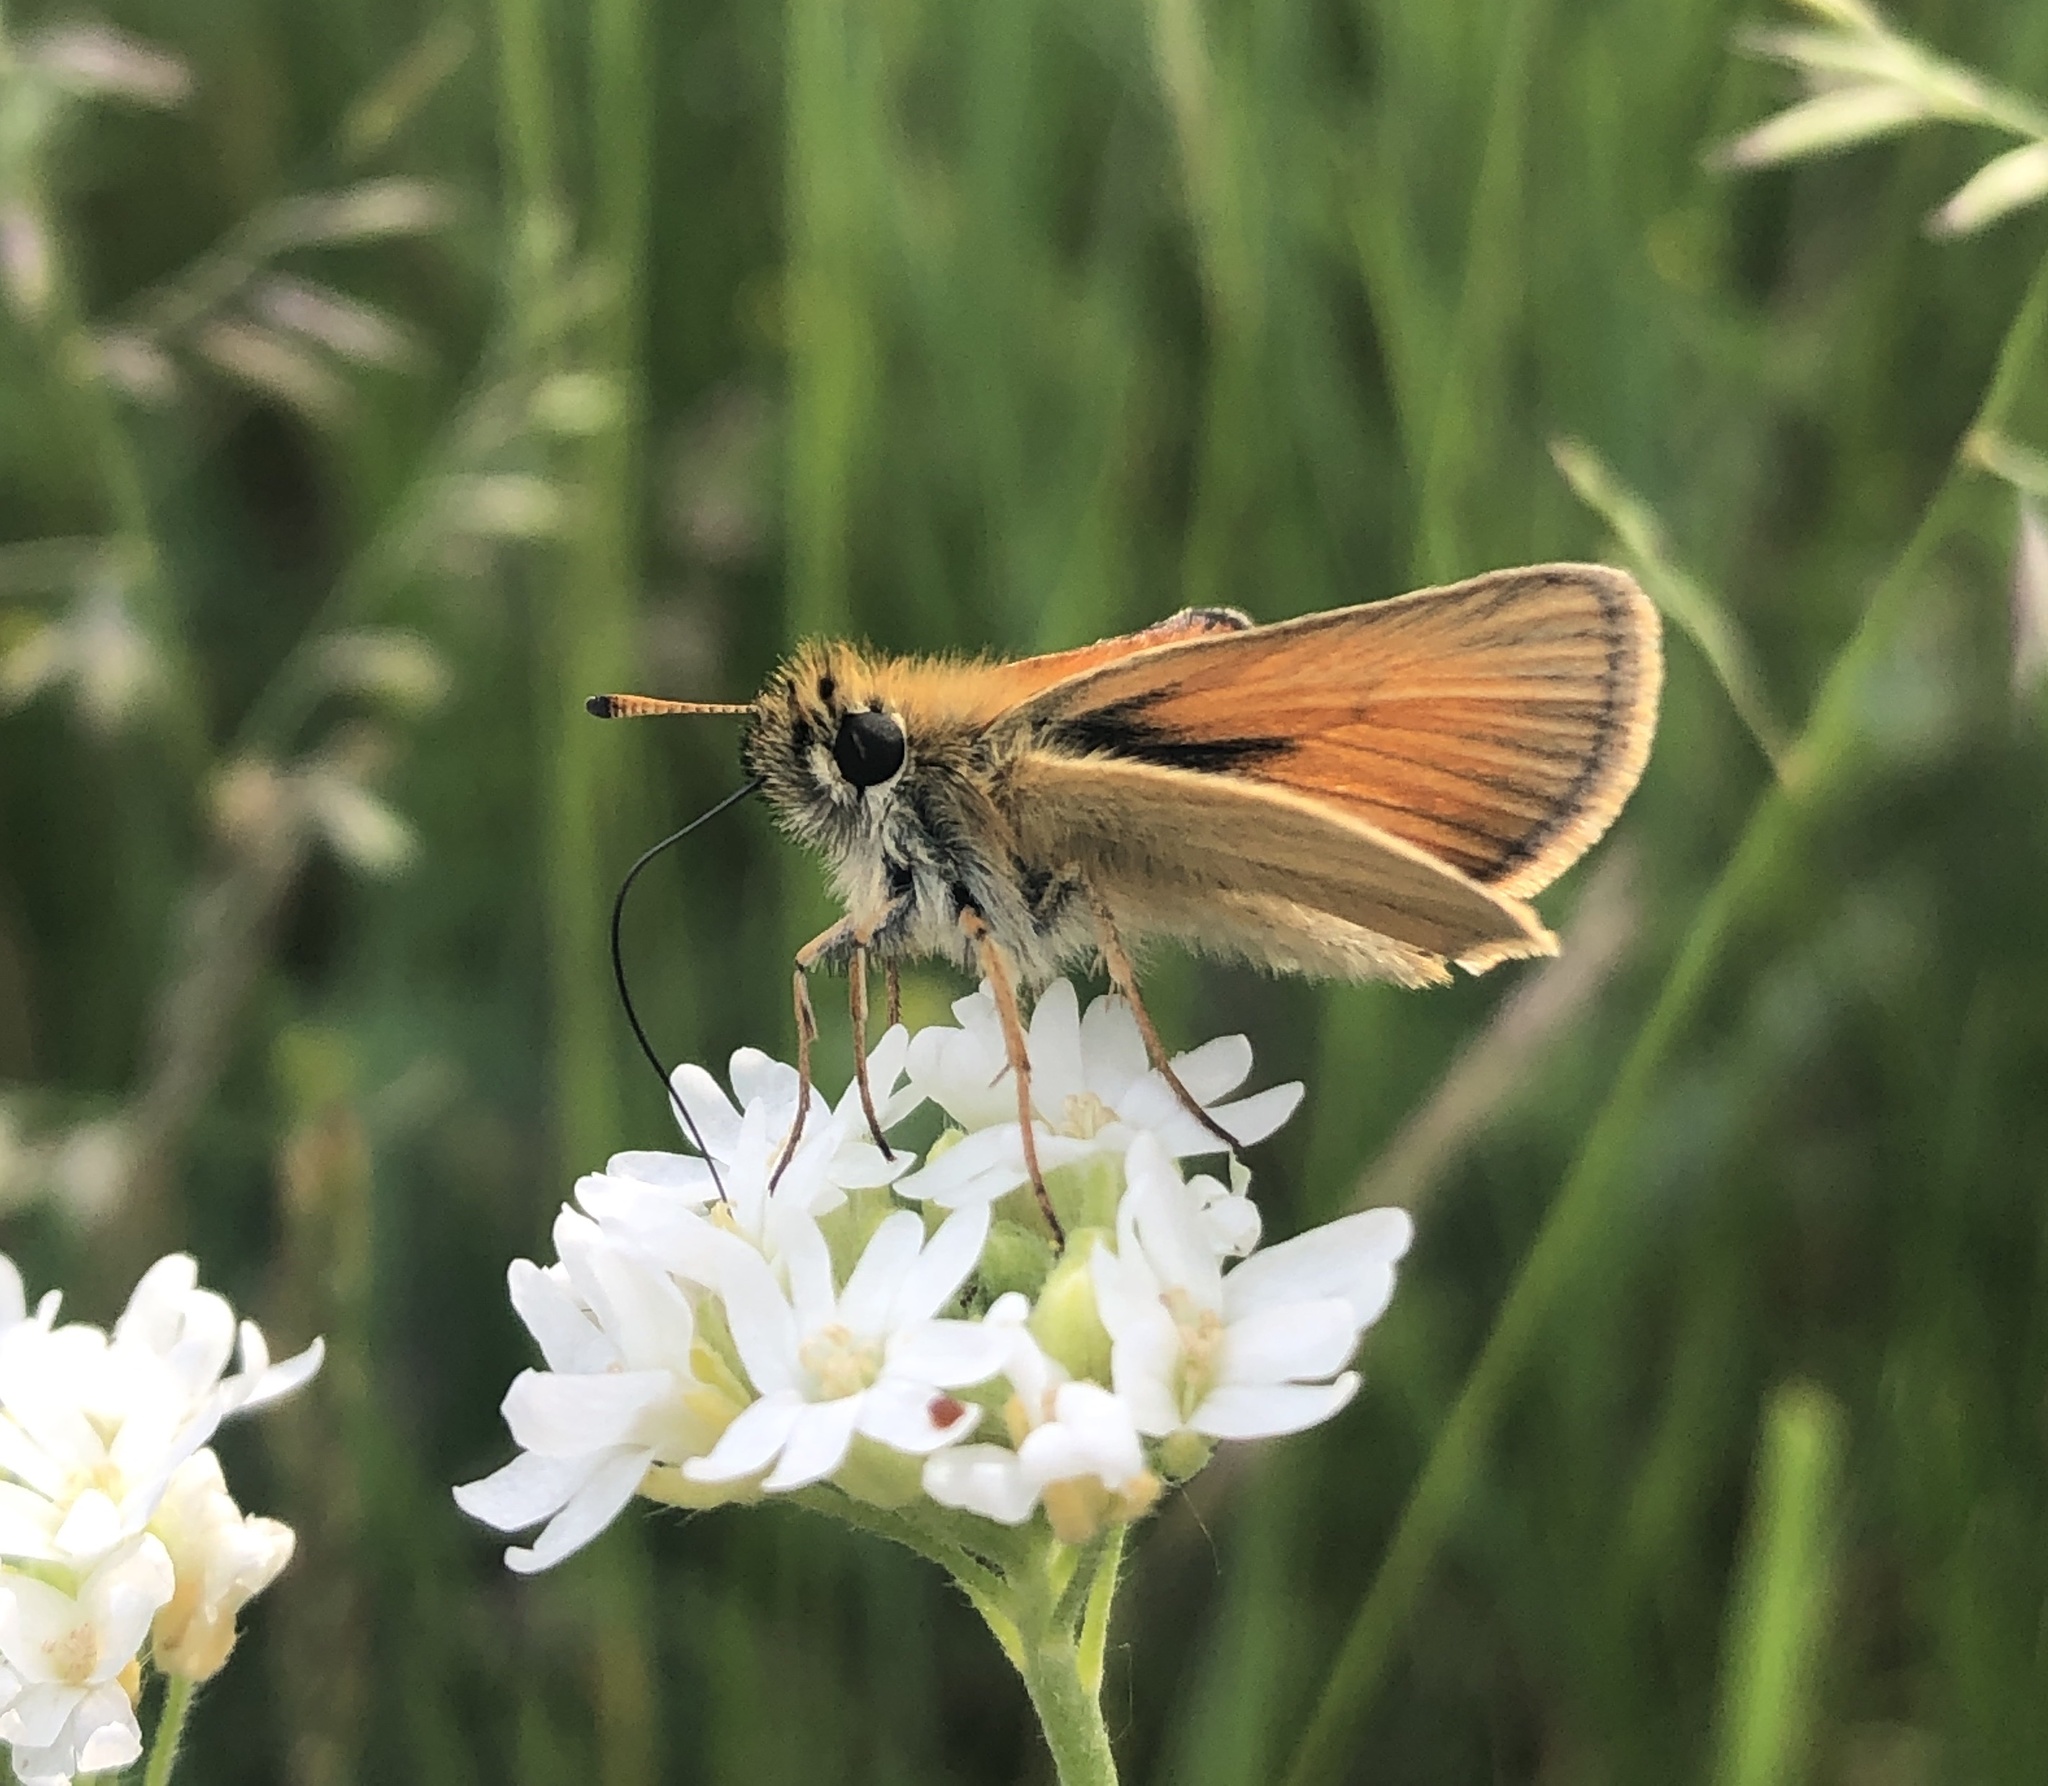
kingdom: Animalia
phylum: Arthropoda
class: Insecta
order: Lepidoptera
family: Hesperiidae
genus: Thymelicus
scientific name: Thymelicus lineola
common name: Essex skipper
